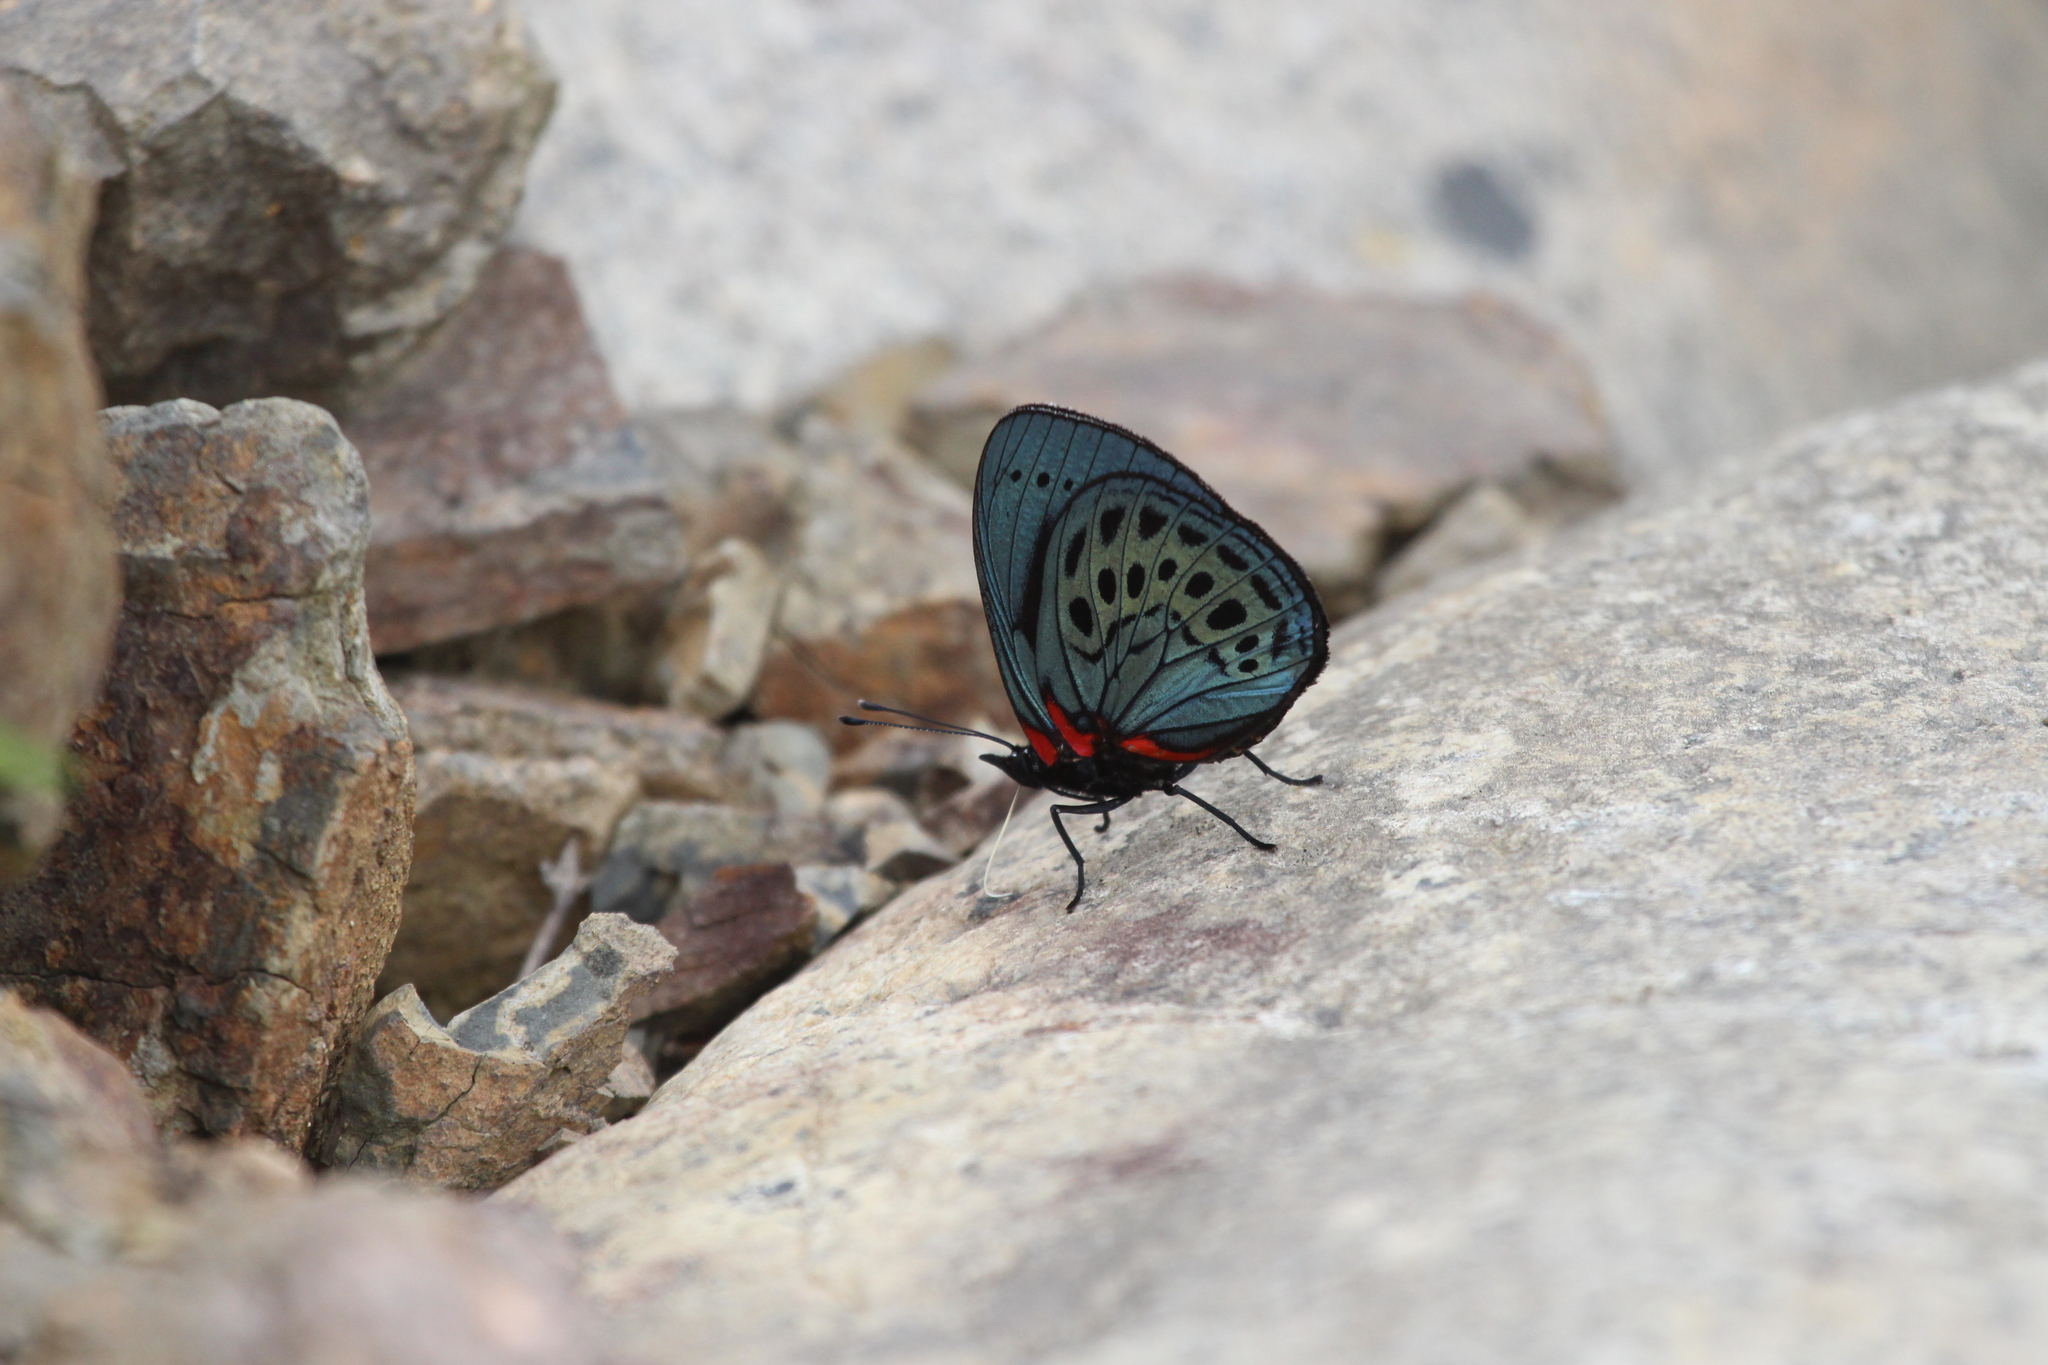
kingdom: Animalia
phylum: Arthropoda
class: Insecta
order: Lepidoptera
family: Nymphalidae
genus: Asterope
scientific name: Asterope leprieuri
